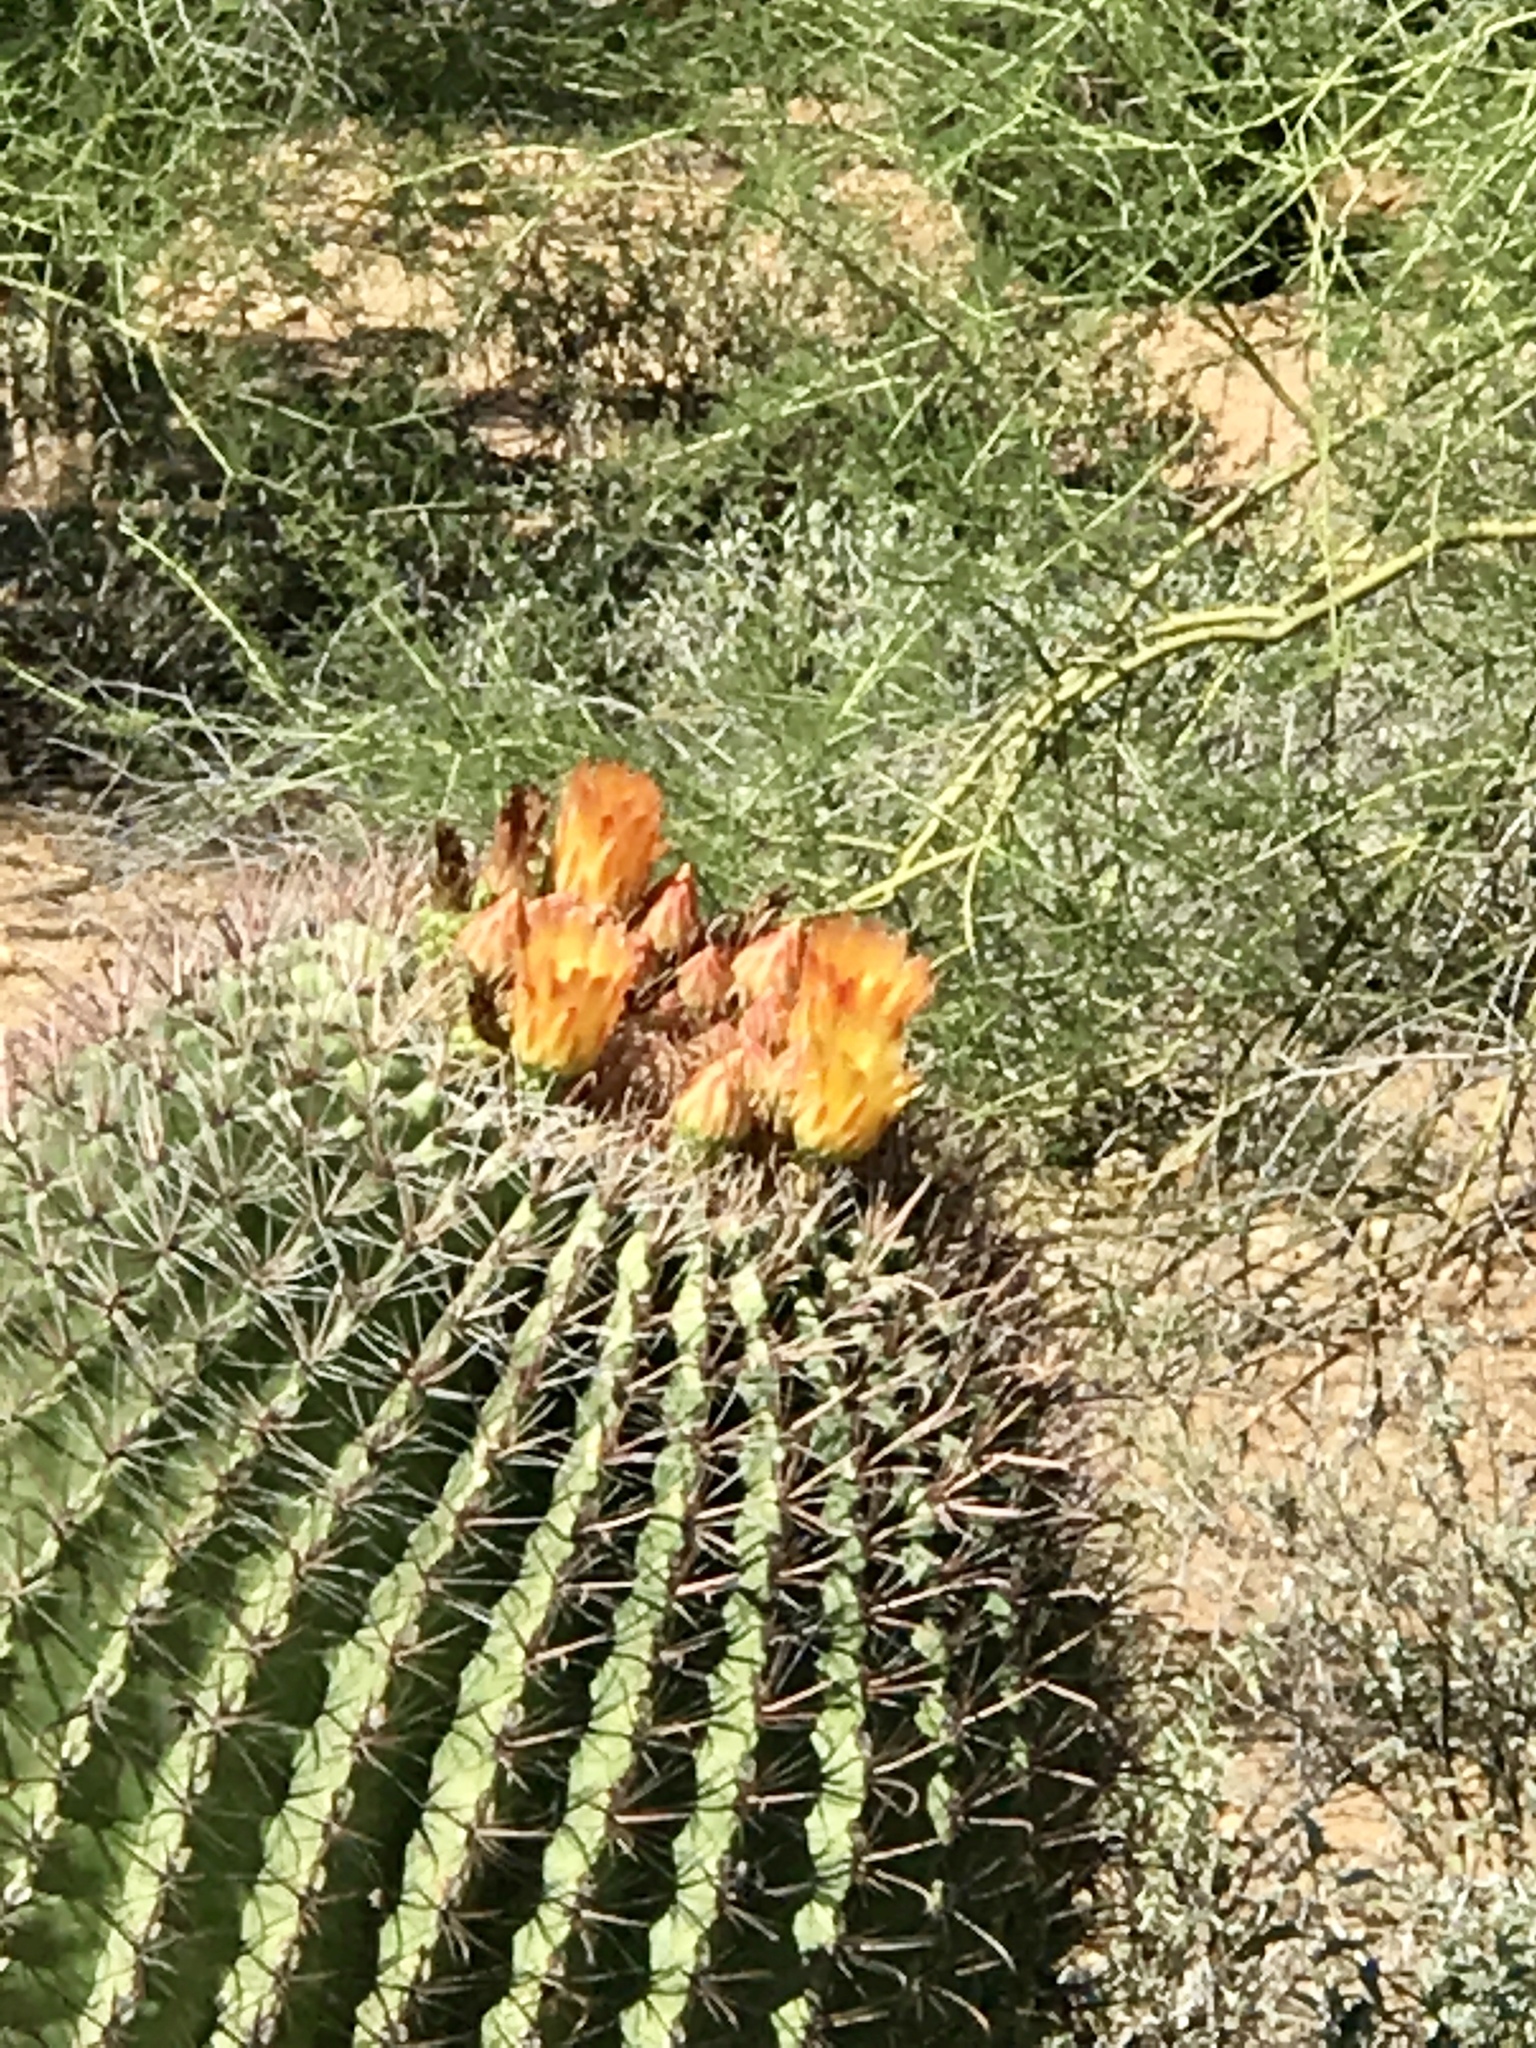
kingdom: Plantae
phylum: Tracheophyta
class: Magnoliopsida
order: Caryophyllales
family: Cactaceae
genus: Ferocactus
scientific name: Ferocactus wislizeni
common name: Candy barrel cactus
